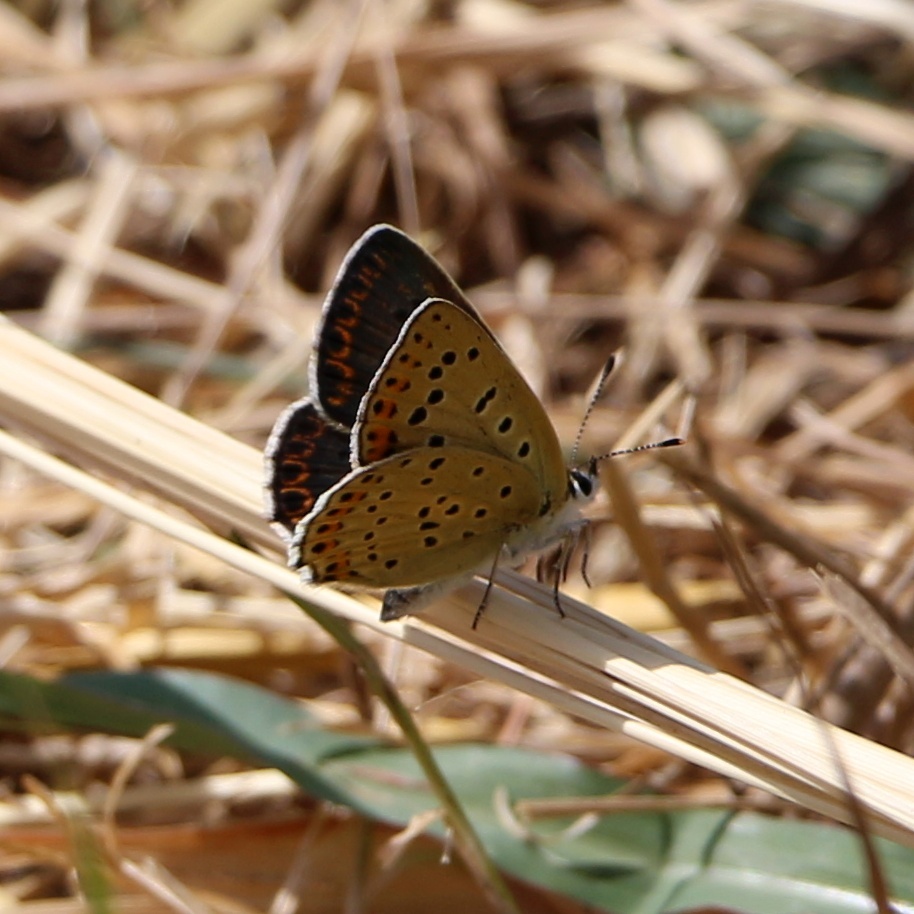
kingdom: Animalia
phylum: Arthropoda
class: Insecta
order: Lepidoptera
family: Lycaenidae
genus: Loweia
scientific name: Loweia tityrus
